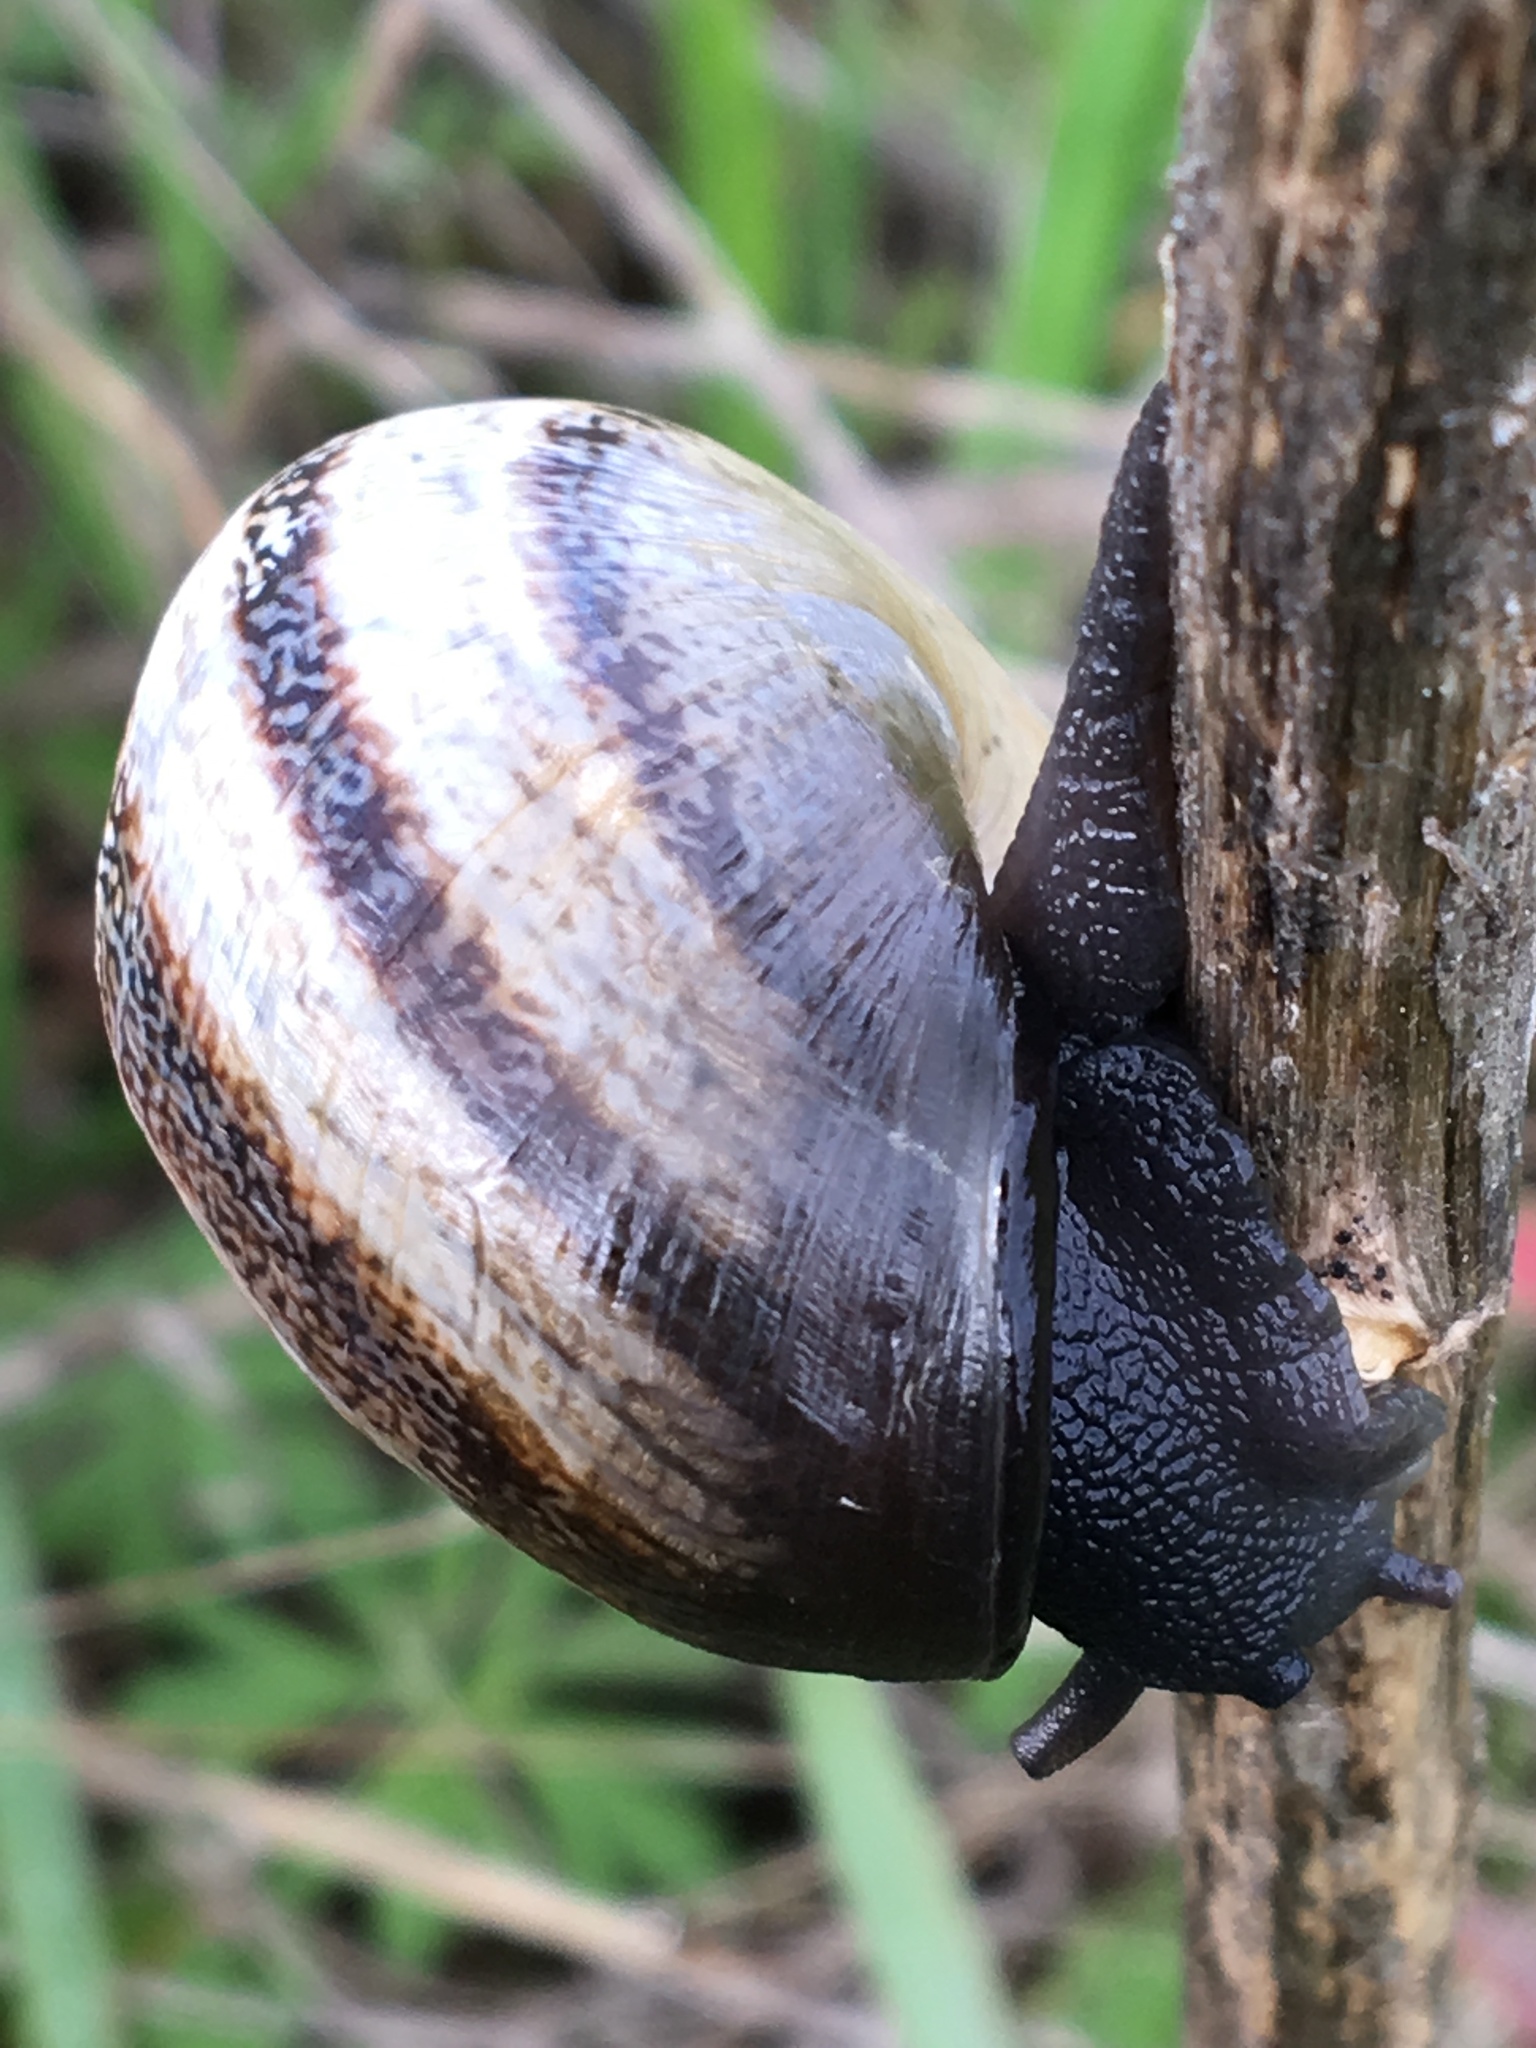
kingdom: Animalia
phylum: Mollusca
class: Gastropoda
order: Stylommatophora
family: Helicidae
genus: Otala
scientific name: Otala lactea
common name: Milk snail
